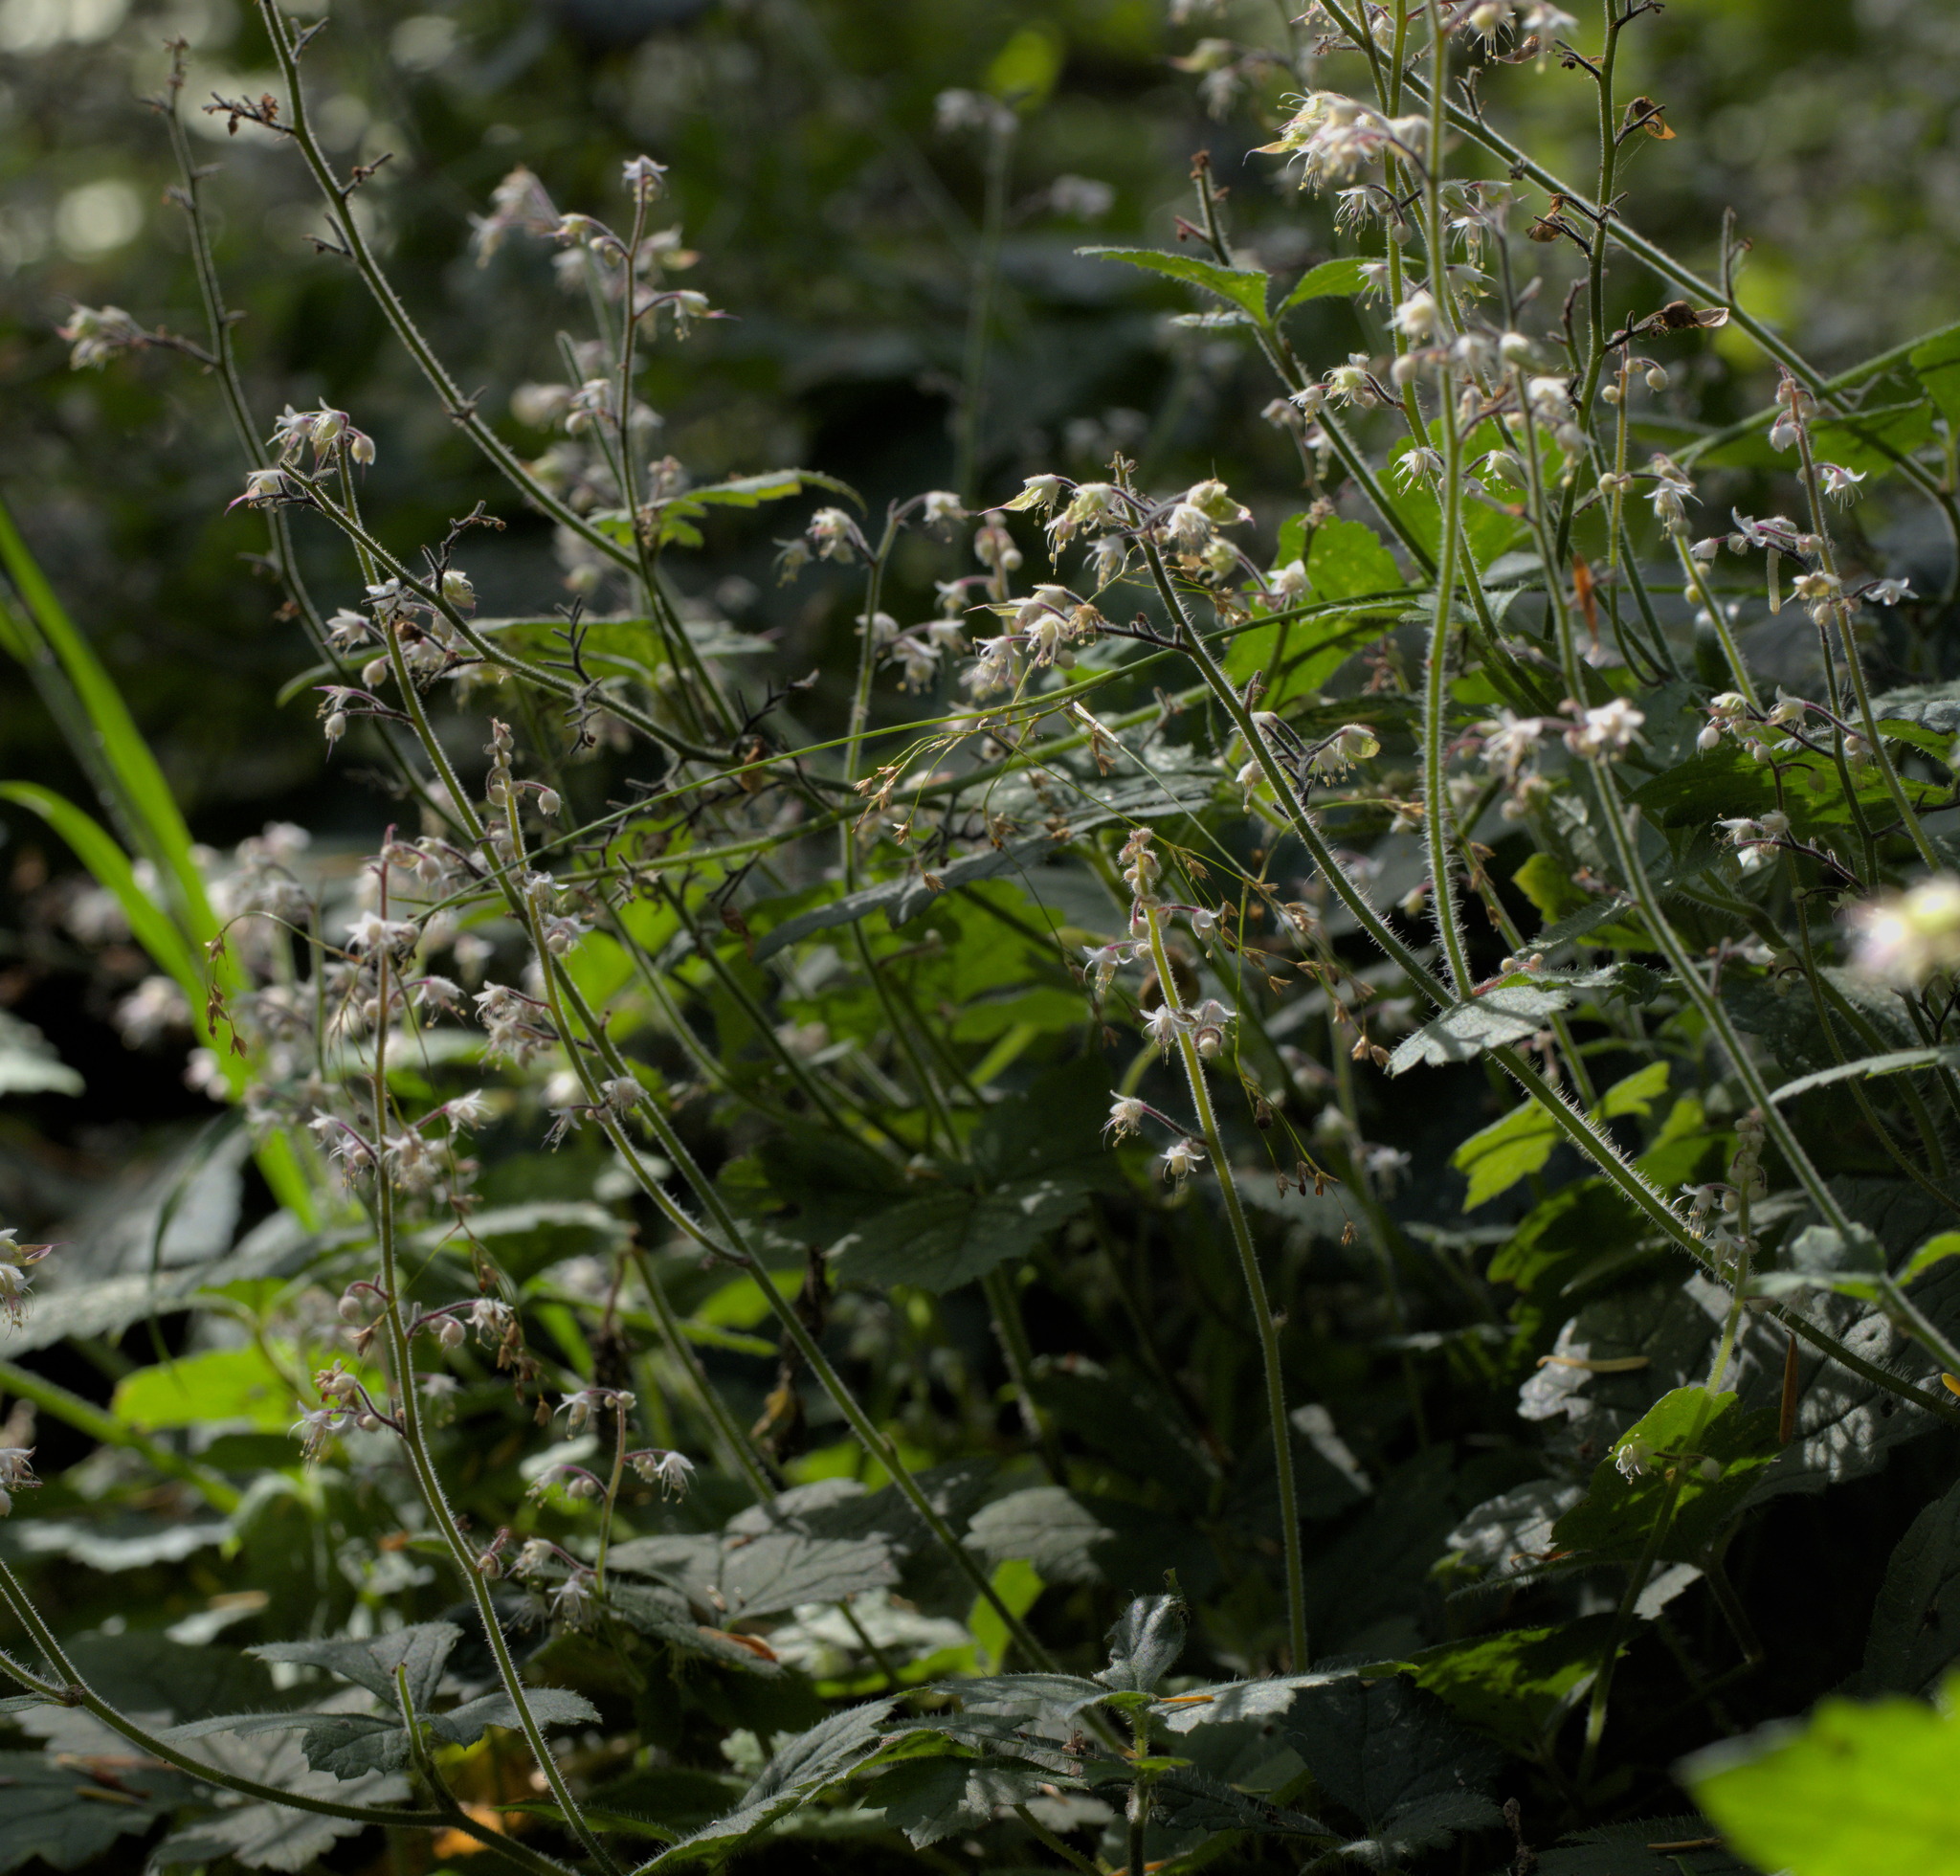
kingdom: Plantae
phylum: Tracheophyta
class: Magnoliopsida
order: Saxifragales
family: Saxifragaceae
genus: Tiarella
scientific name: Tiarella trifoliata
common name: Sugar-scoop
